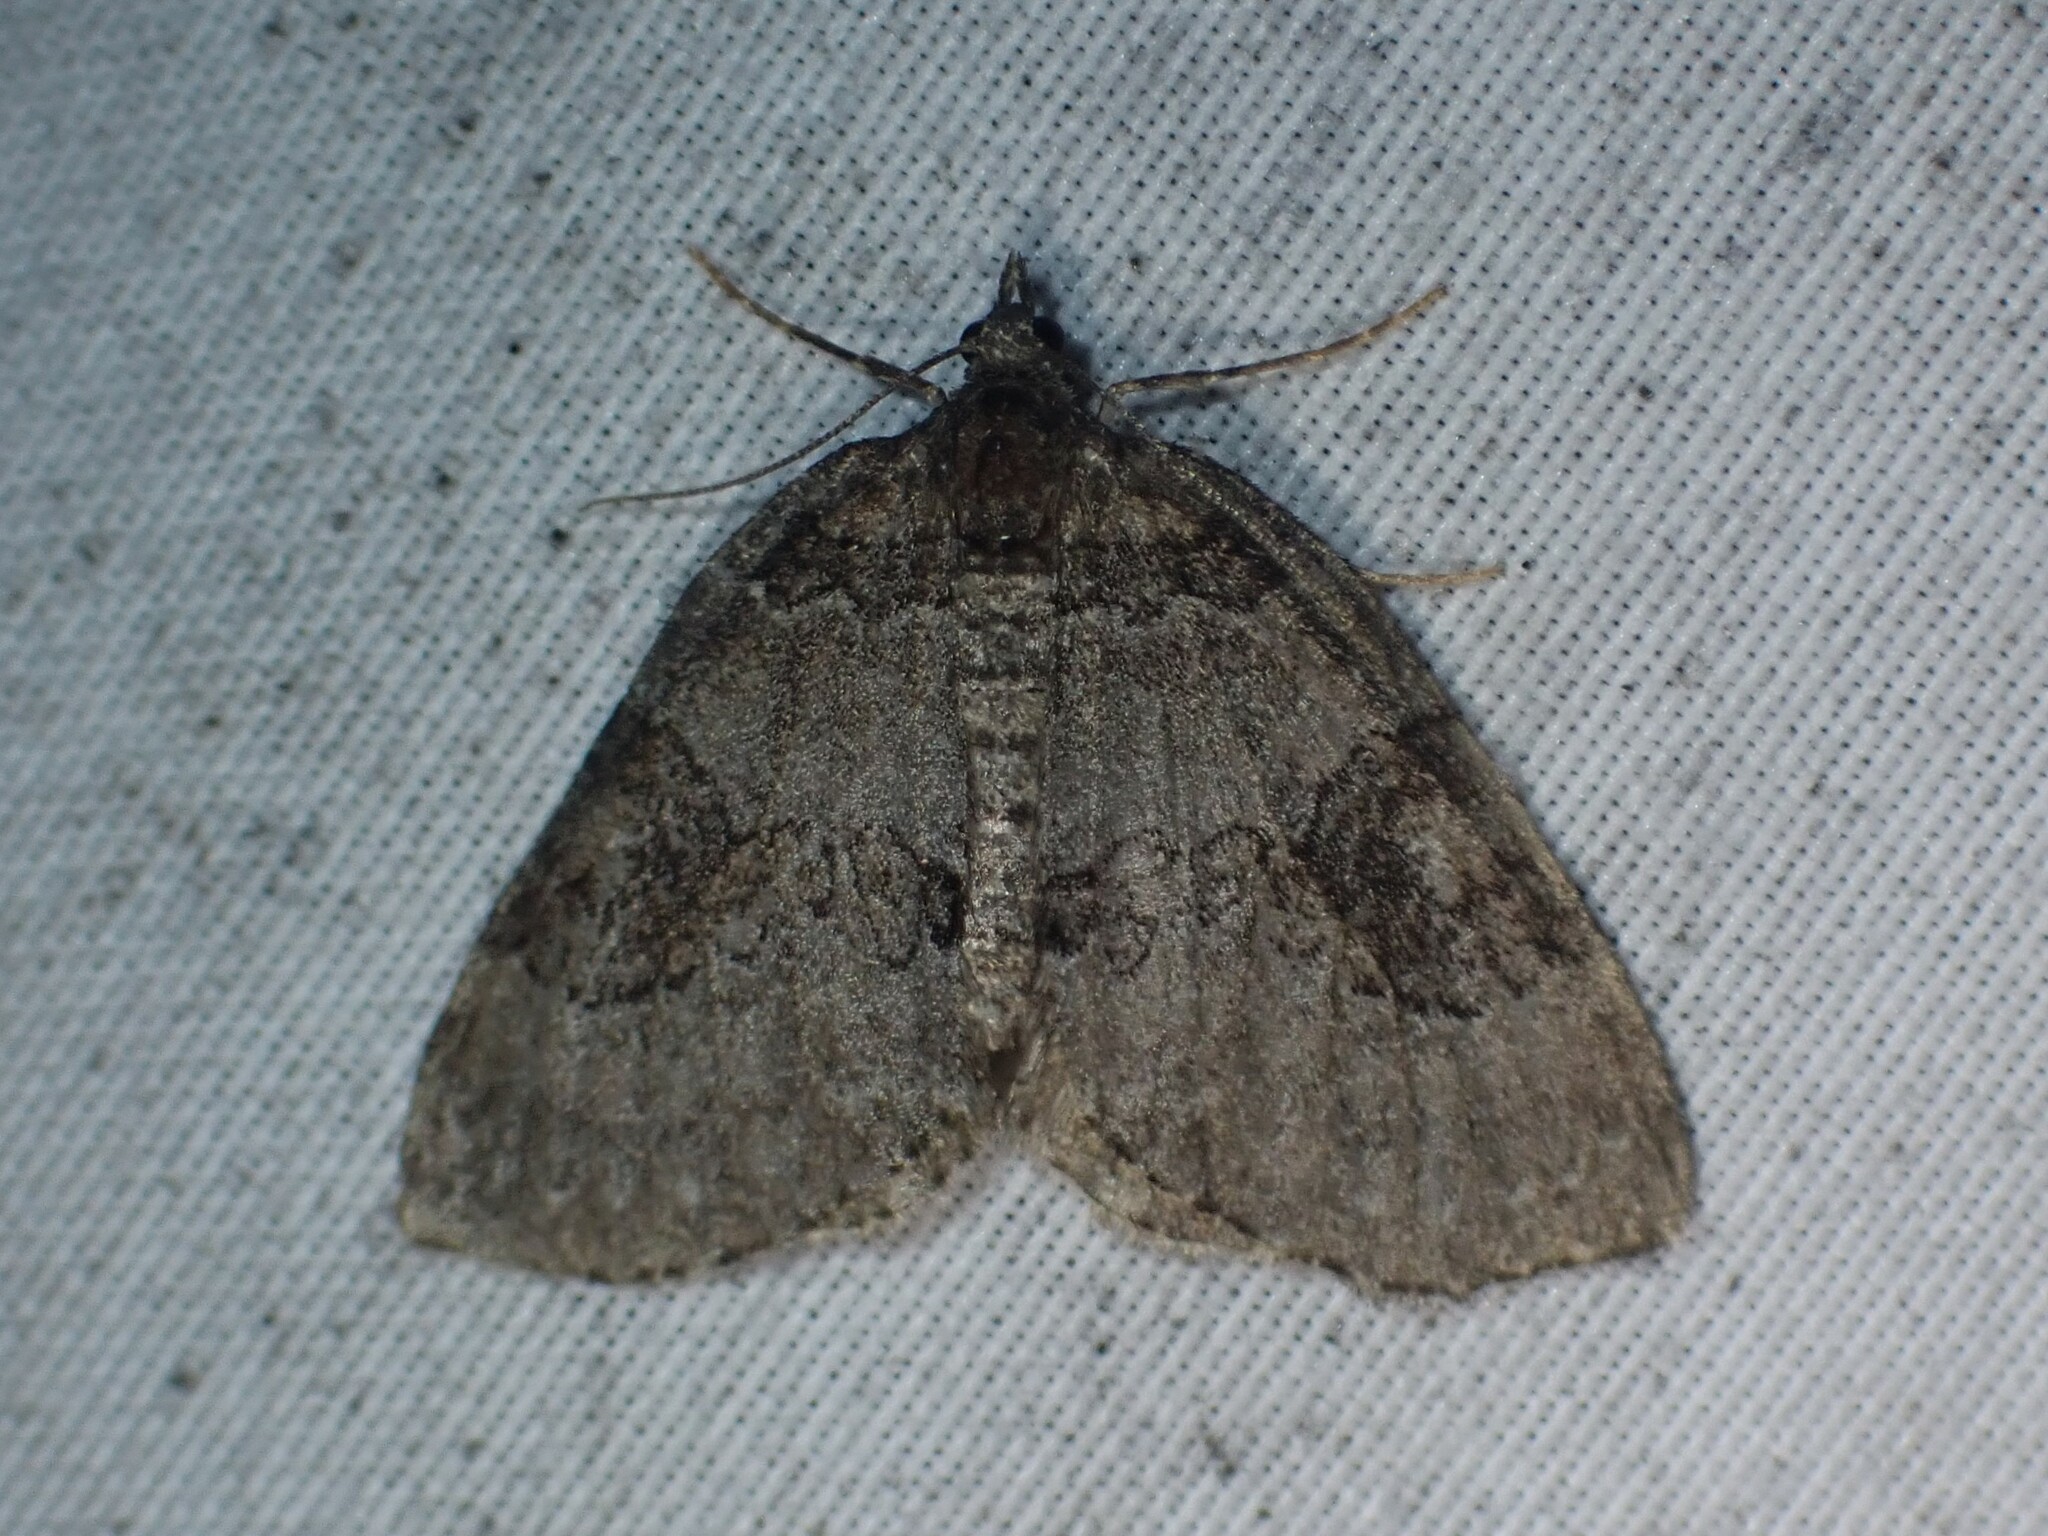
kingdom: Animalia
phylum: Arthropoda
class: Insecta
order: Lepidoptera
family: Geometridae
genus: Plemyria
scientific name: Plemyria georgii
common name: George's carpet moth
